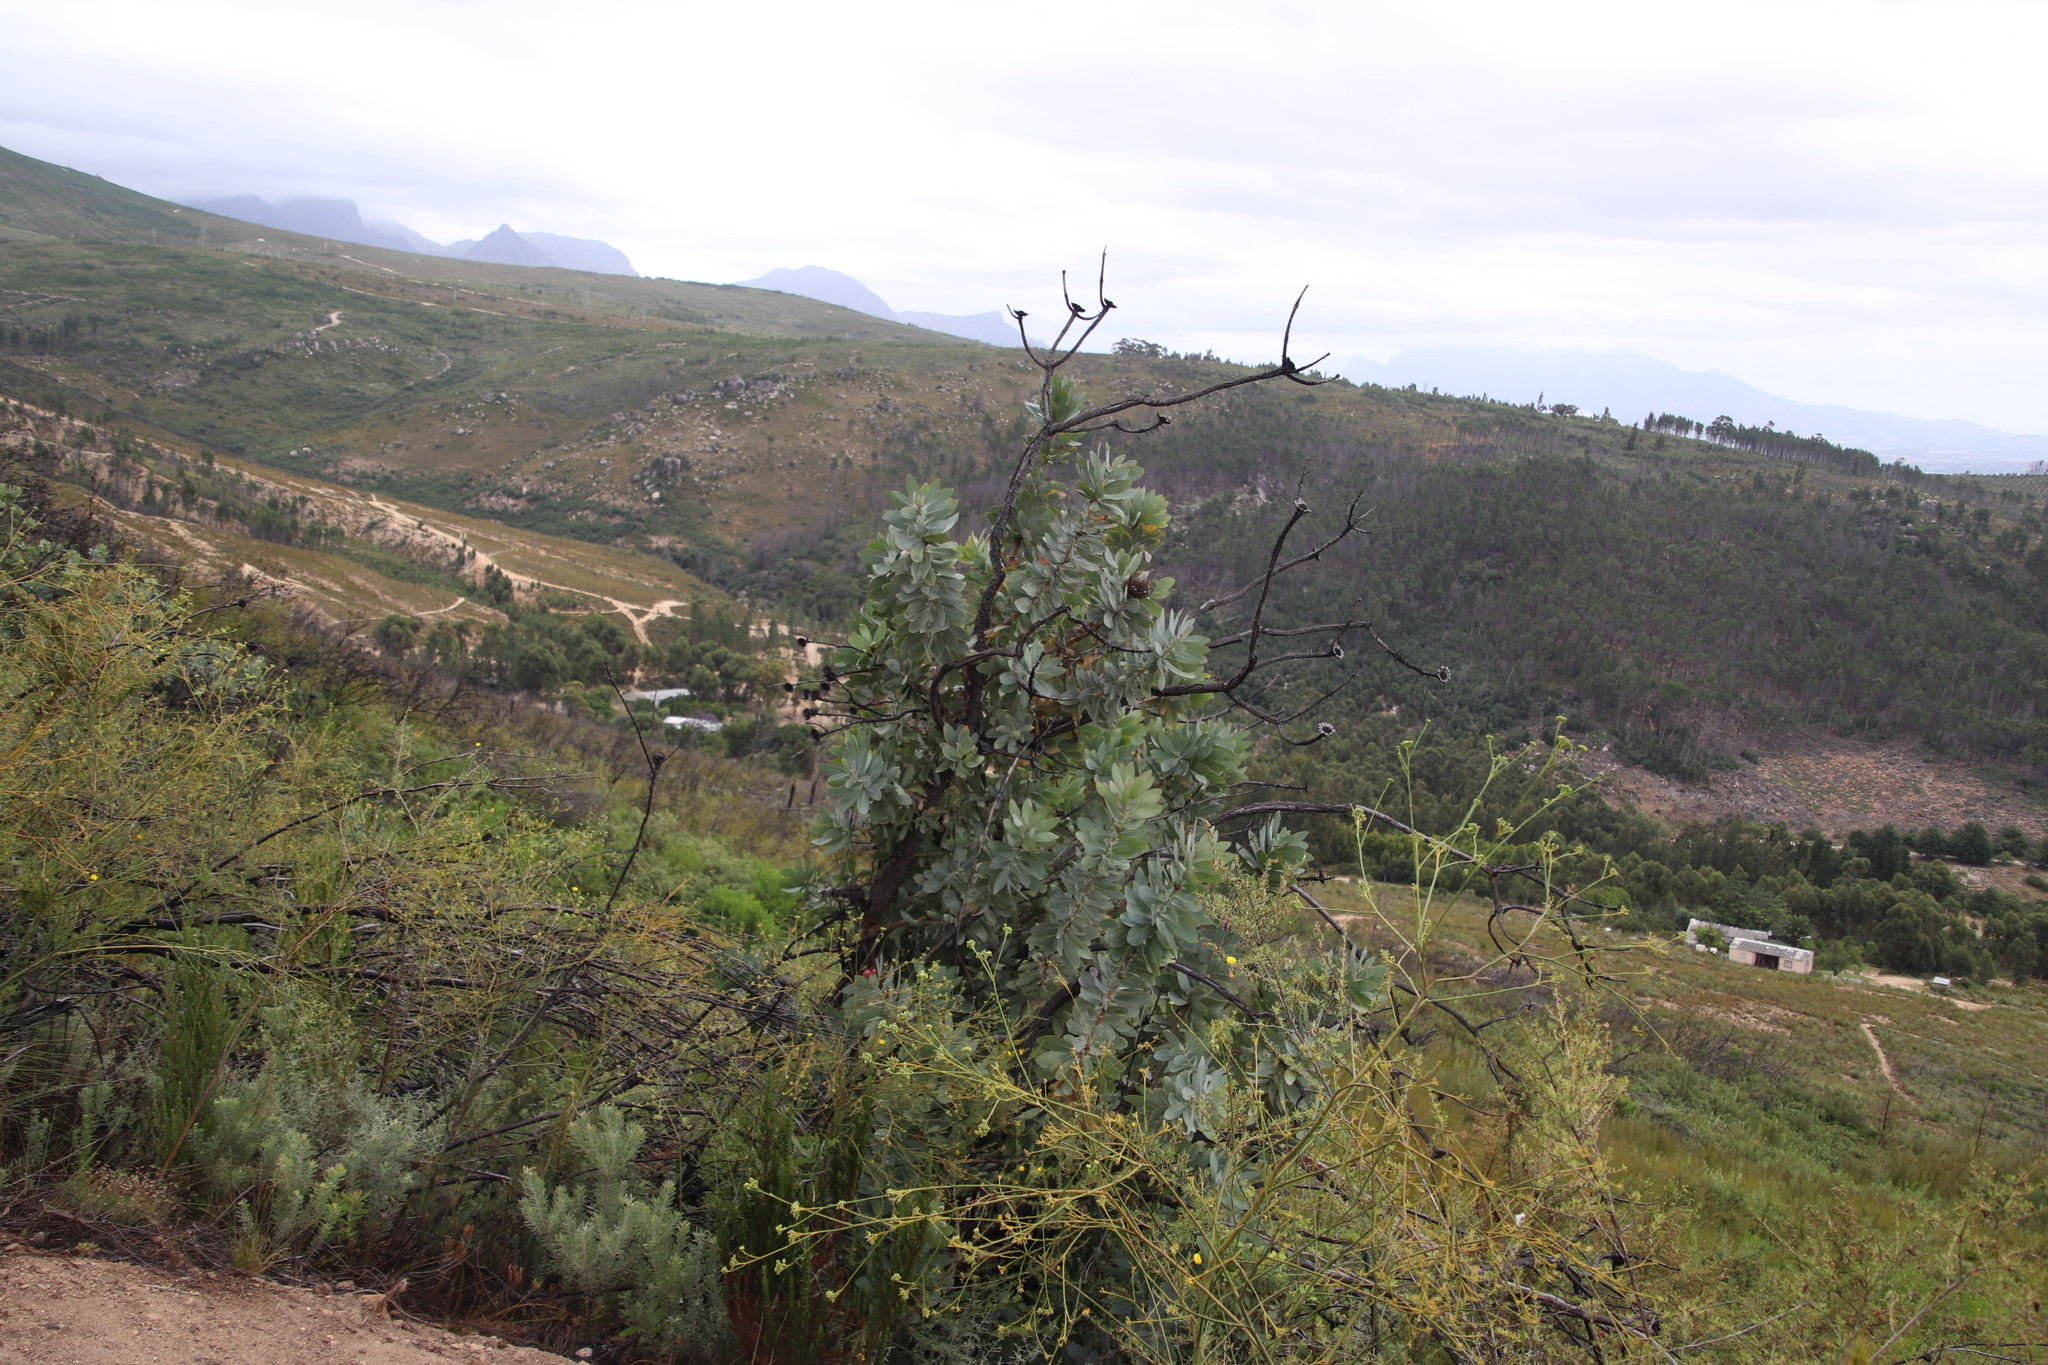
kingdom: Plantae
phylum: Tracheophyta
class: Magnoliopsida
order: Proteales
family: Proteaceae
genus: Protea
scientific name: Protea nitida
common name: Tree protea
